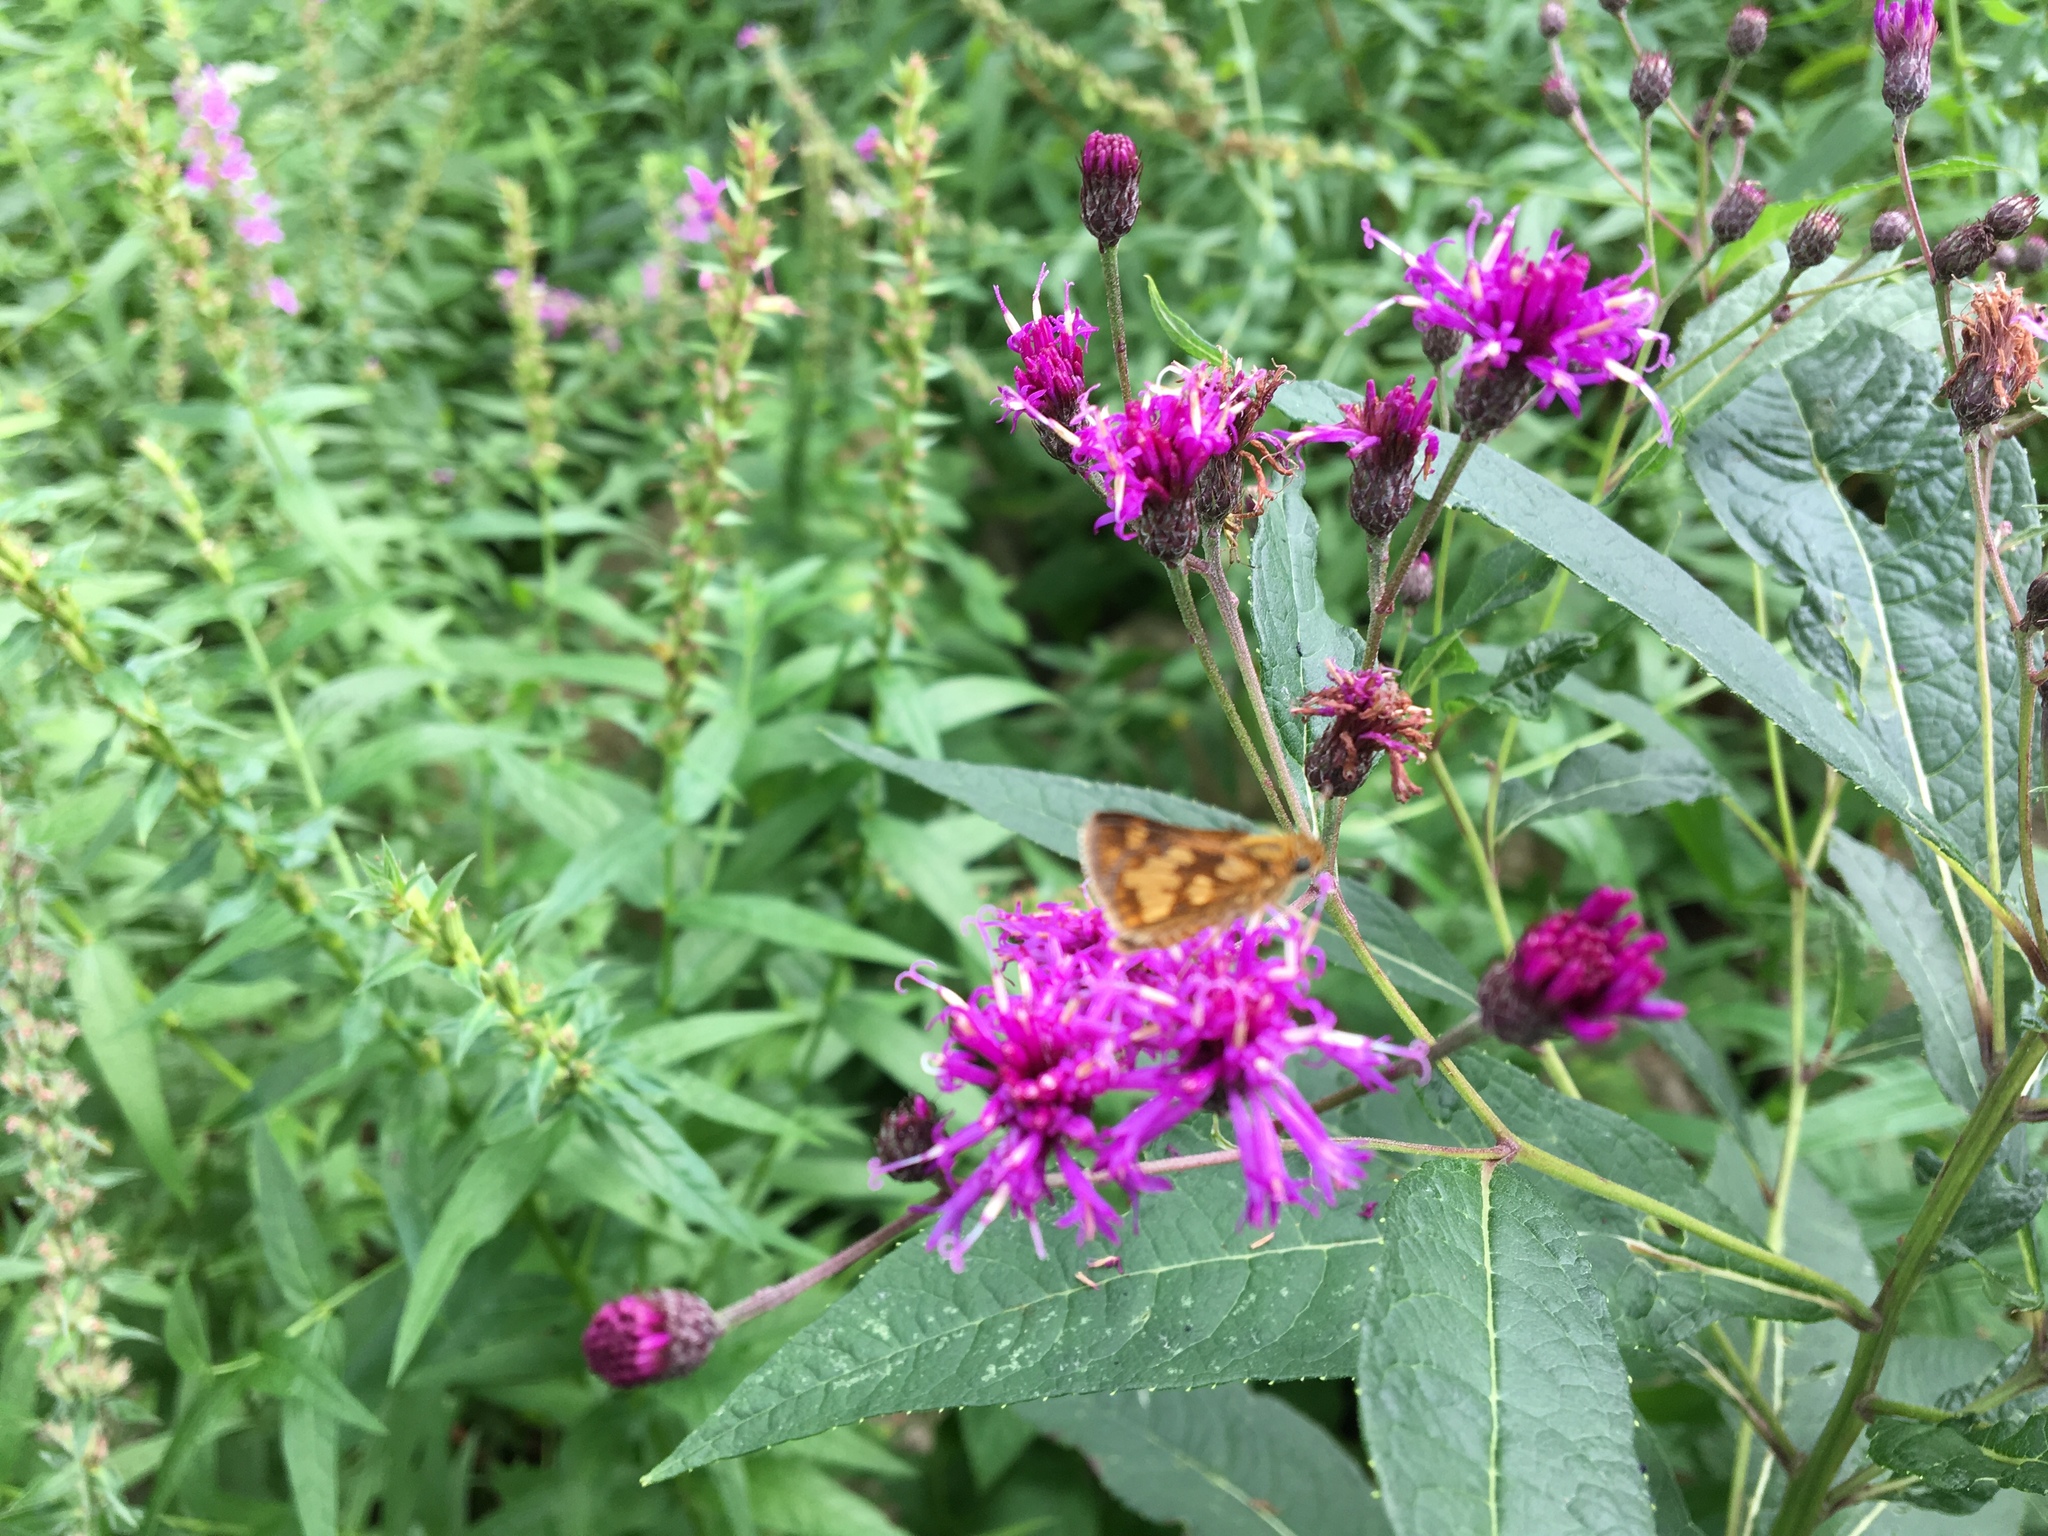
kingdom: Animalia
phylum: Arthropoda
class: Insecta
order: Lepidoptera
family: Hesperiidae
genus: Polites
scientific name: Polites coras
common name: Peck's skipper
